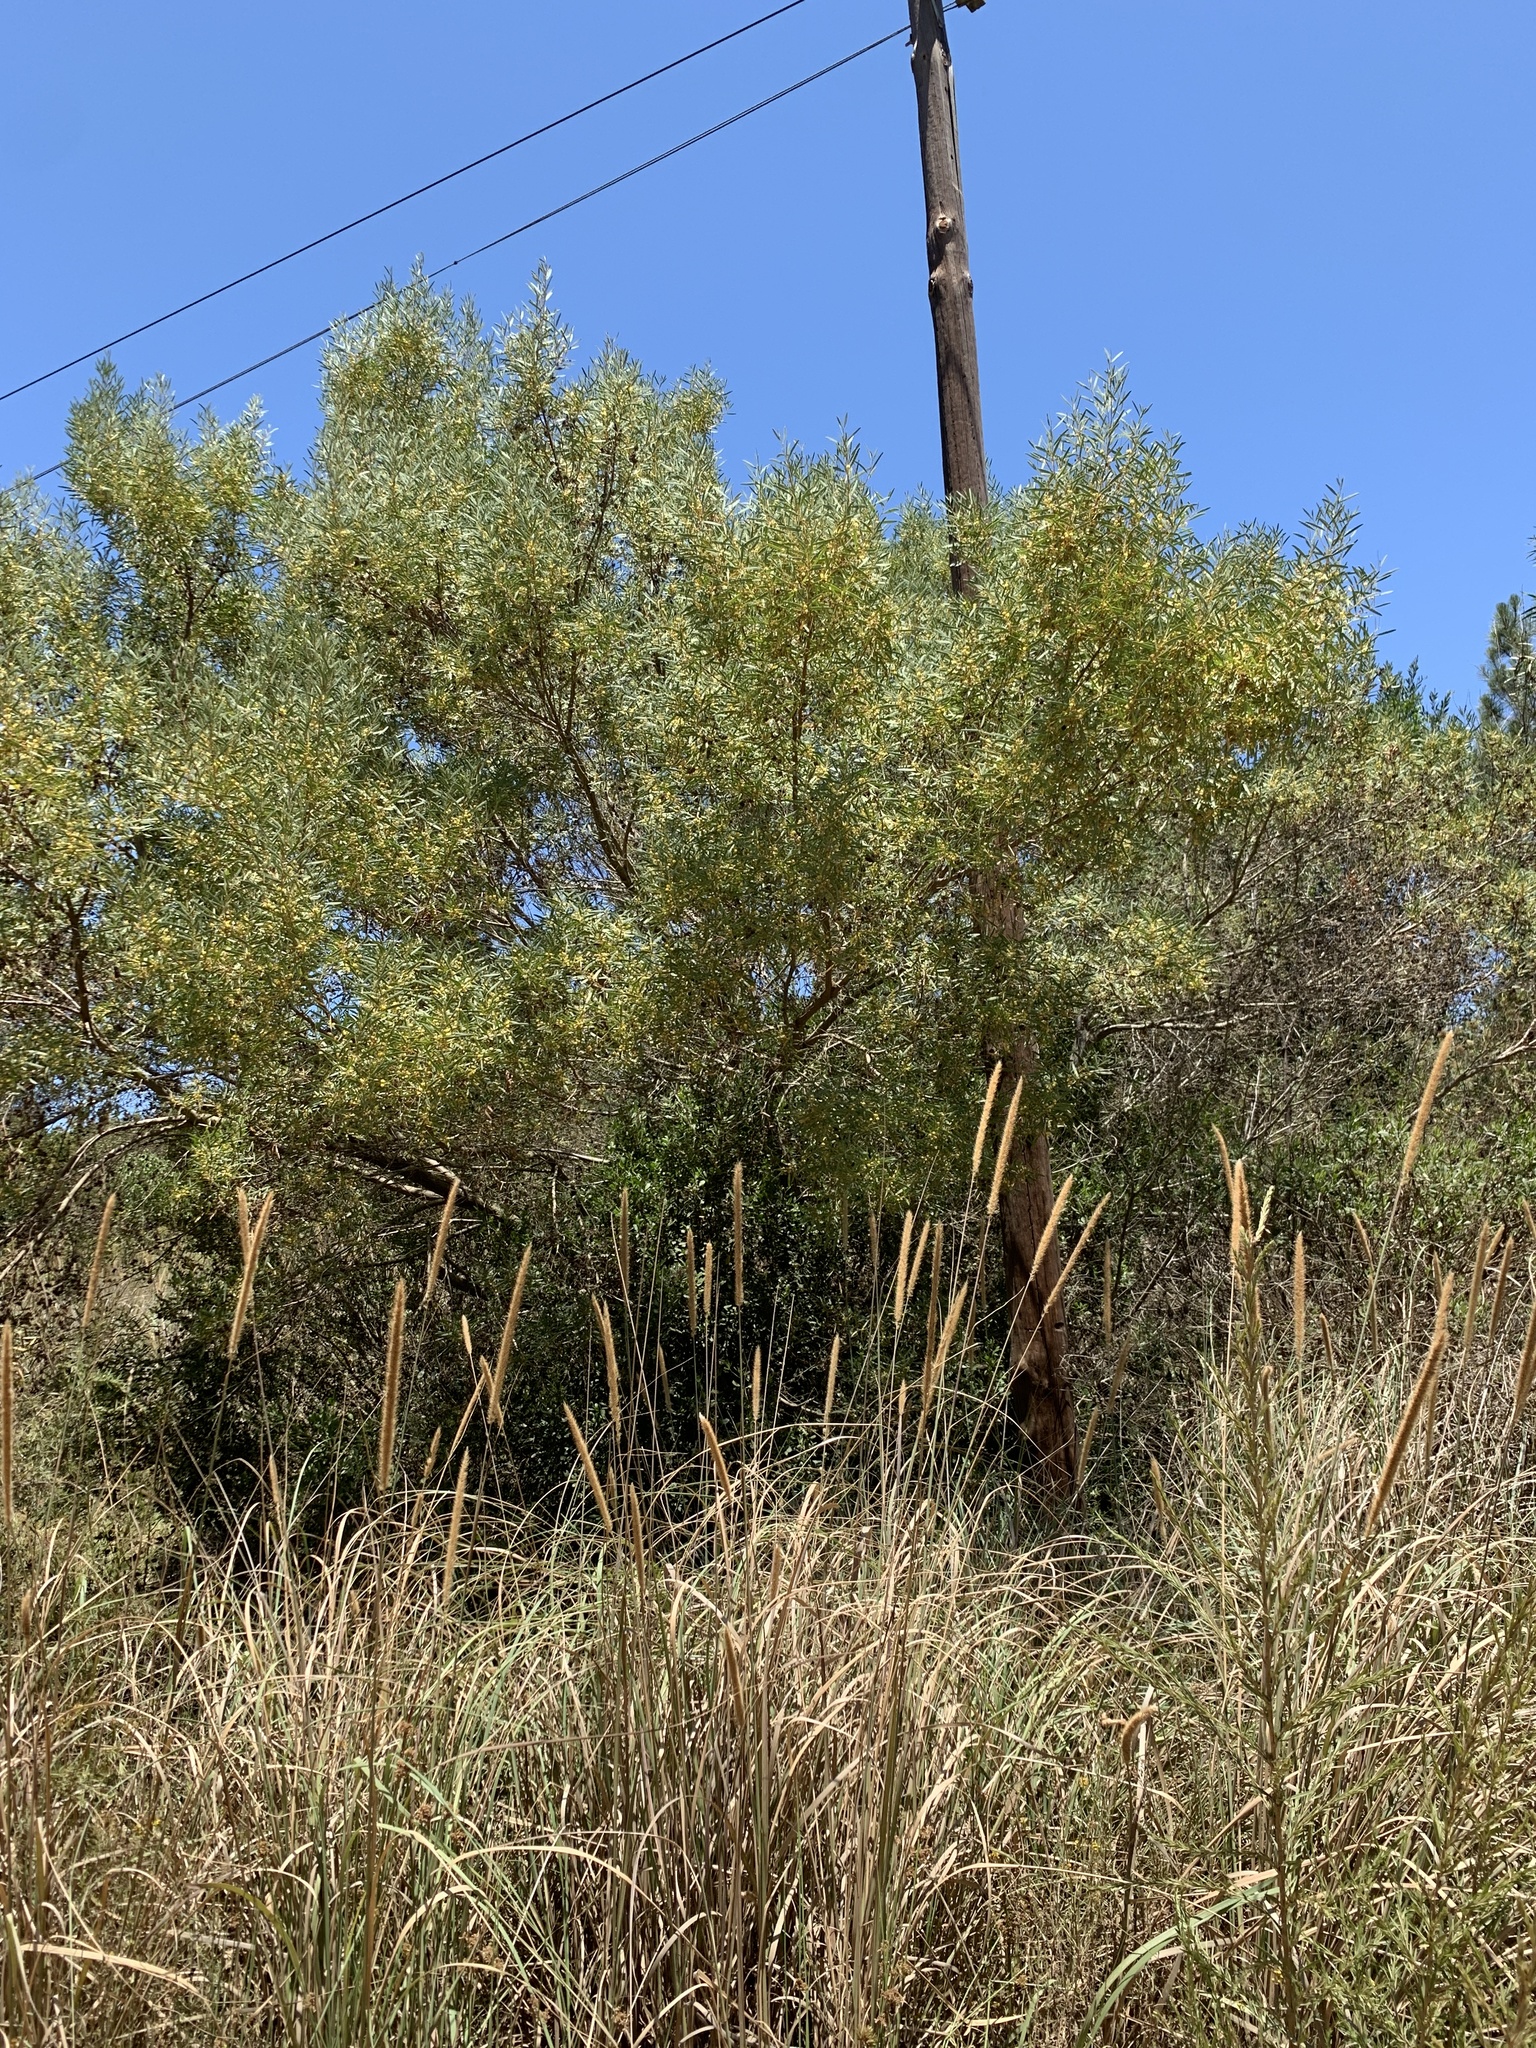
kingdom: Plantae
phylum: Tracheophyta
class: Magnoliopsida
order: Fabales
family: Fabaceae
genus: Acacia
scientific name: Acacia cyclops
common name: Coastal wattle
